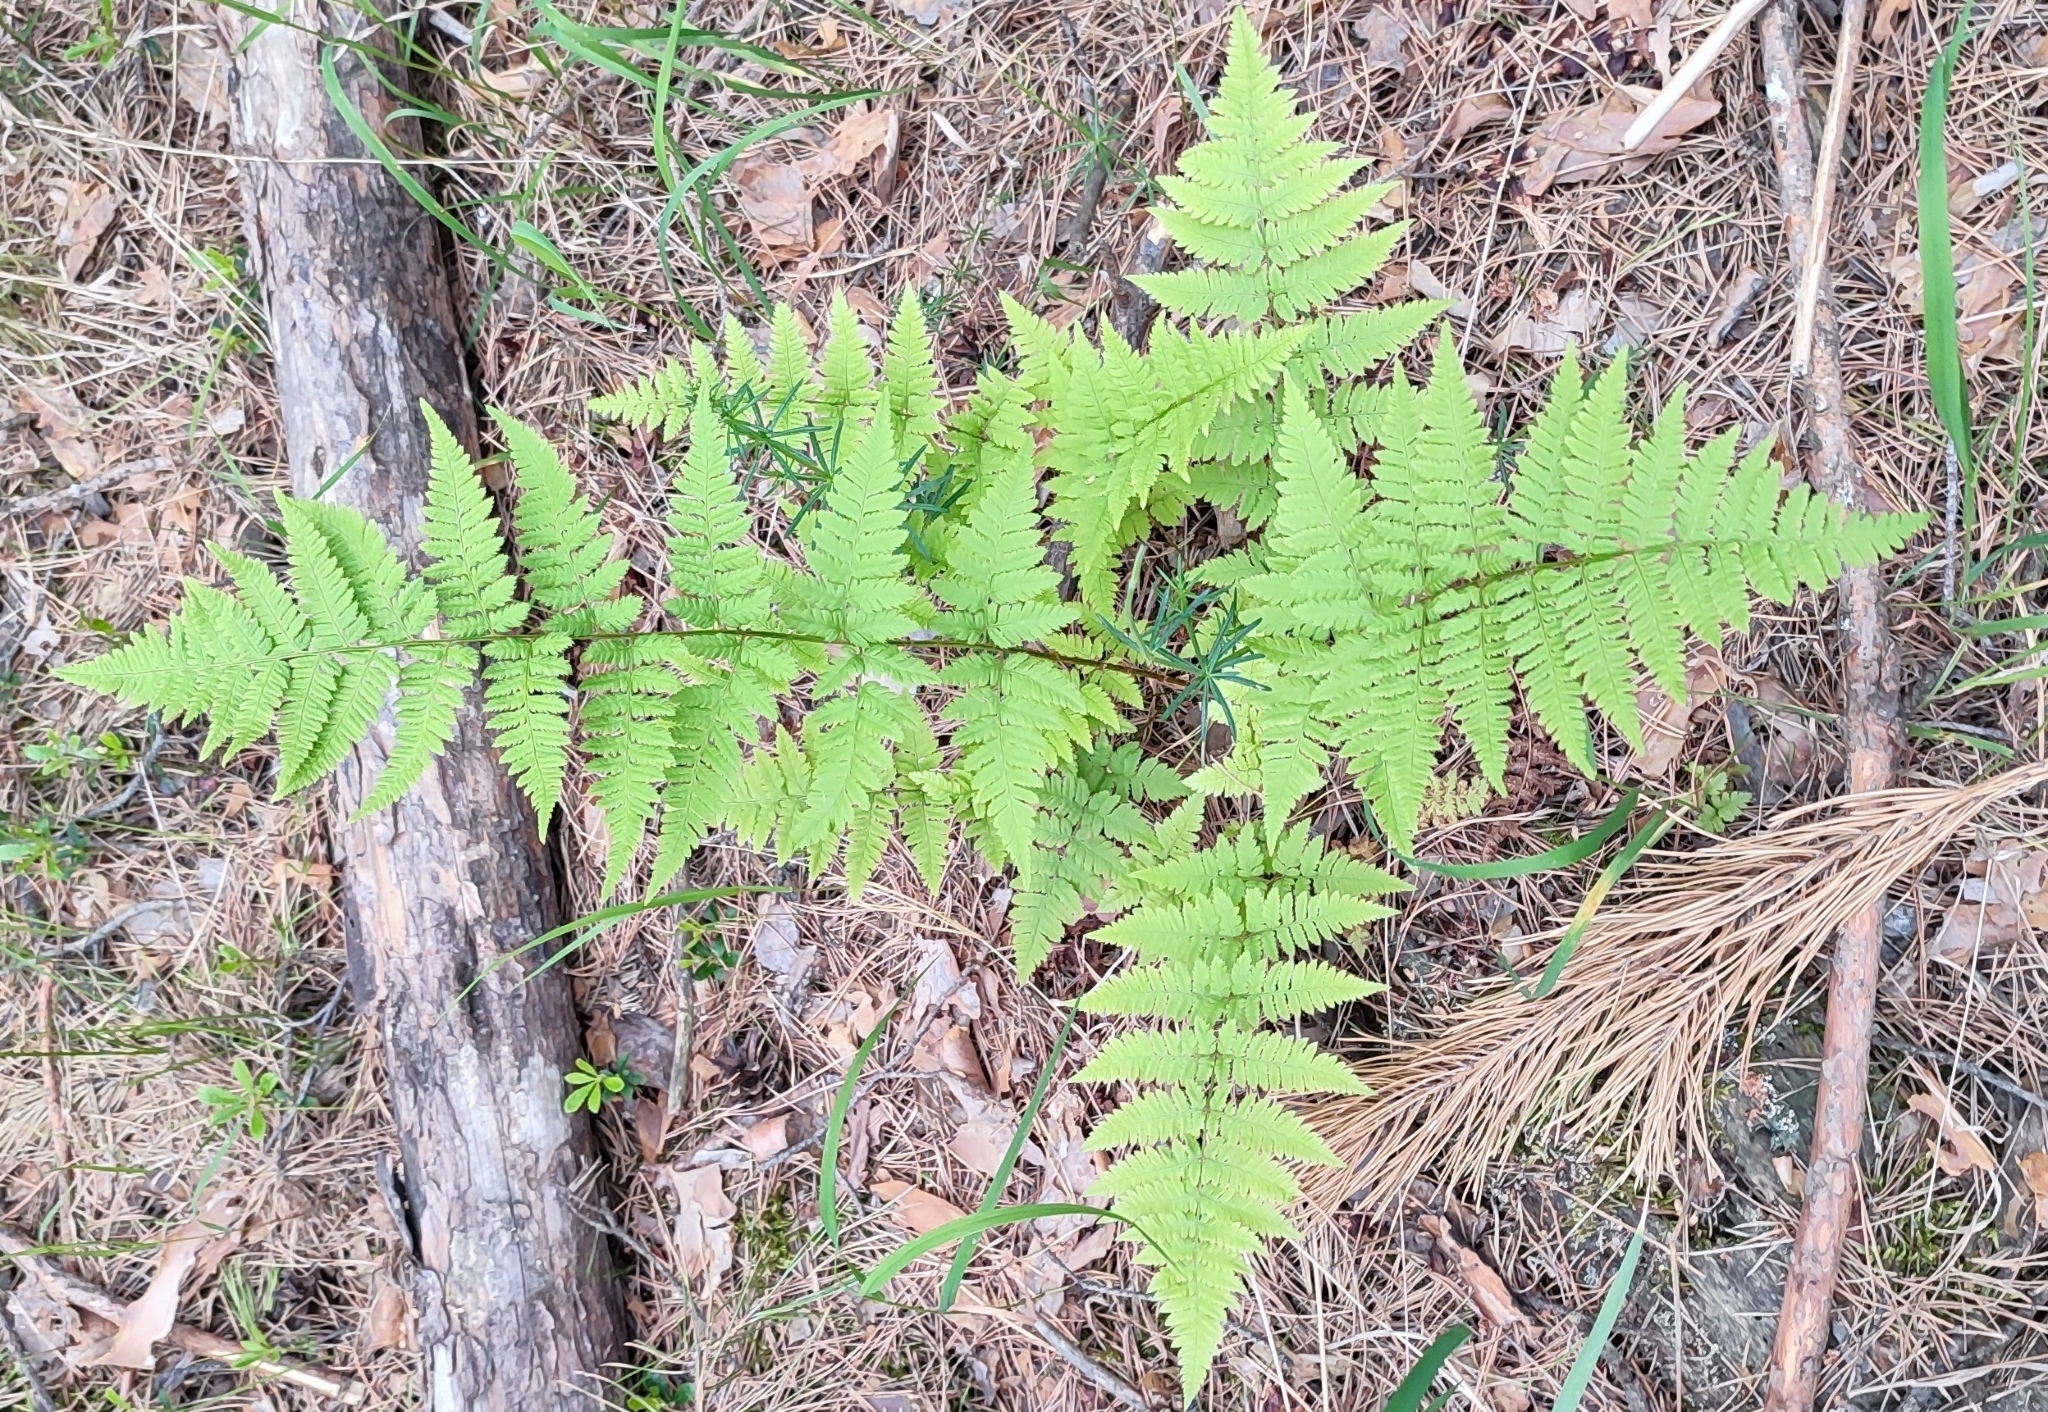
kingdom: Plantae
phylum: Tracheophyta
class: Polypodiopsida
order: Polypodiales
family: Dryopteridaceae
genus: Dryopteris
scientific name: Dryopteris carthusiana
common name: Narrow buckler-fern
